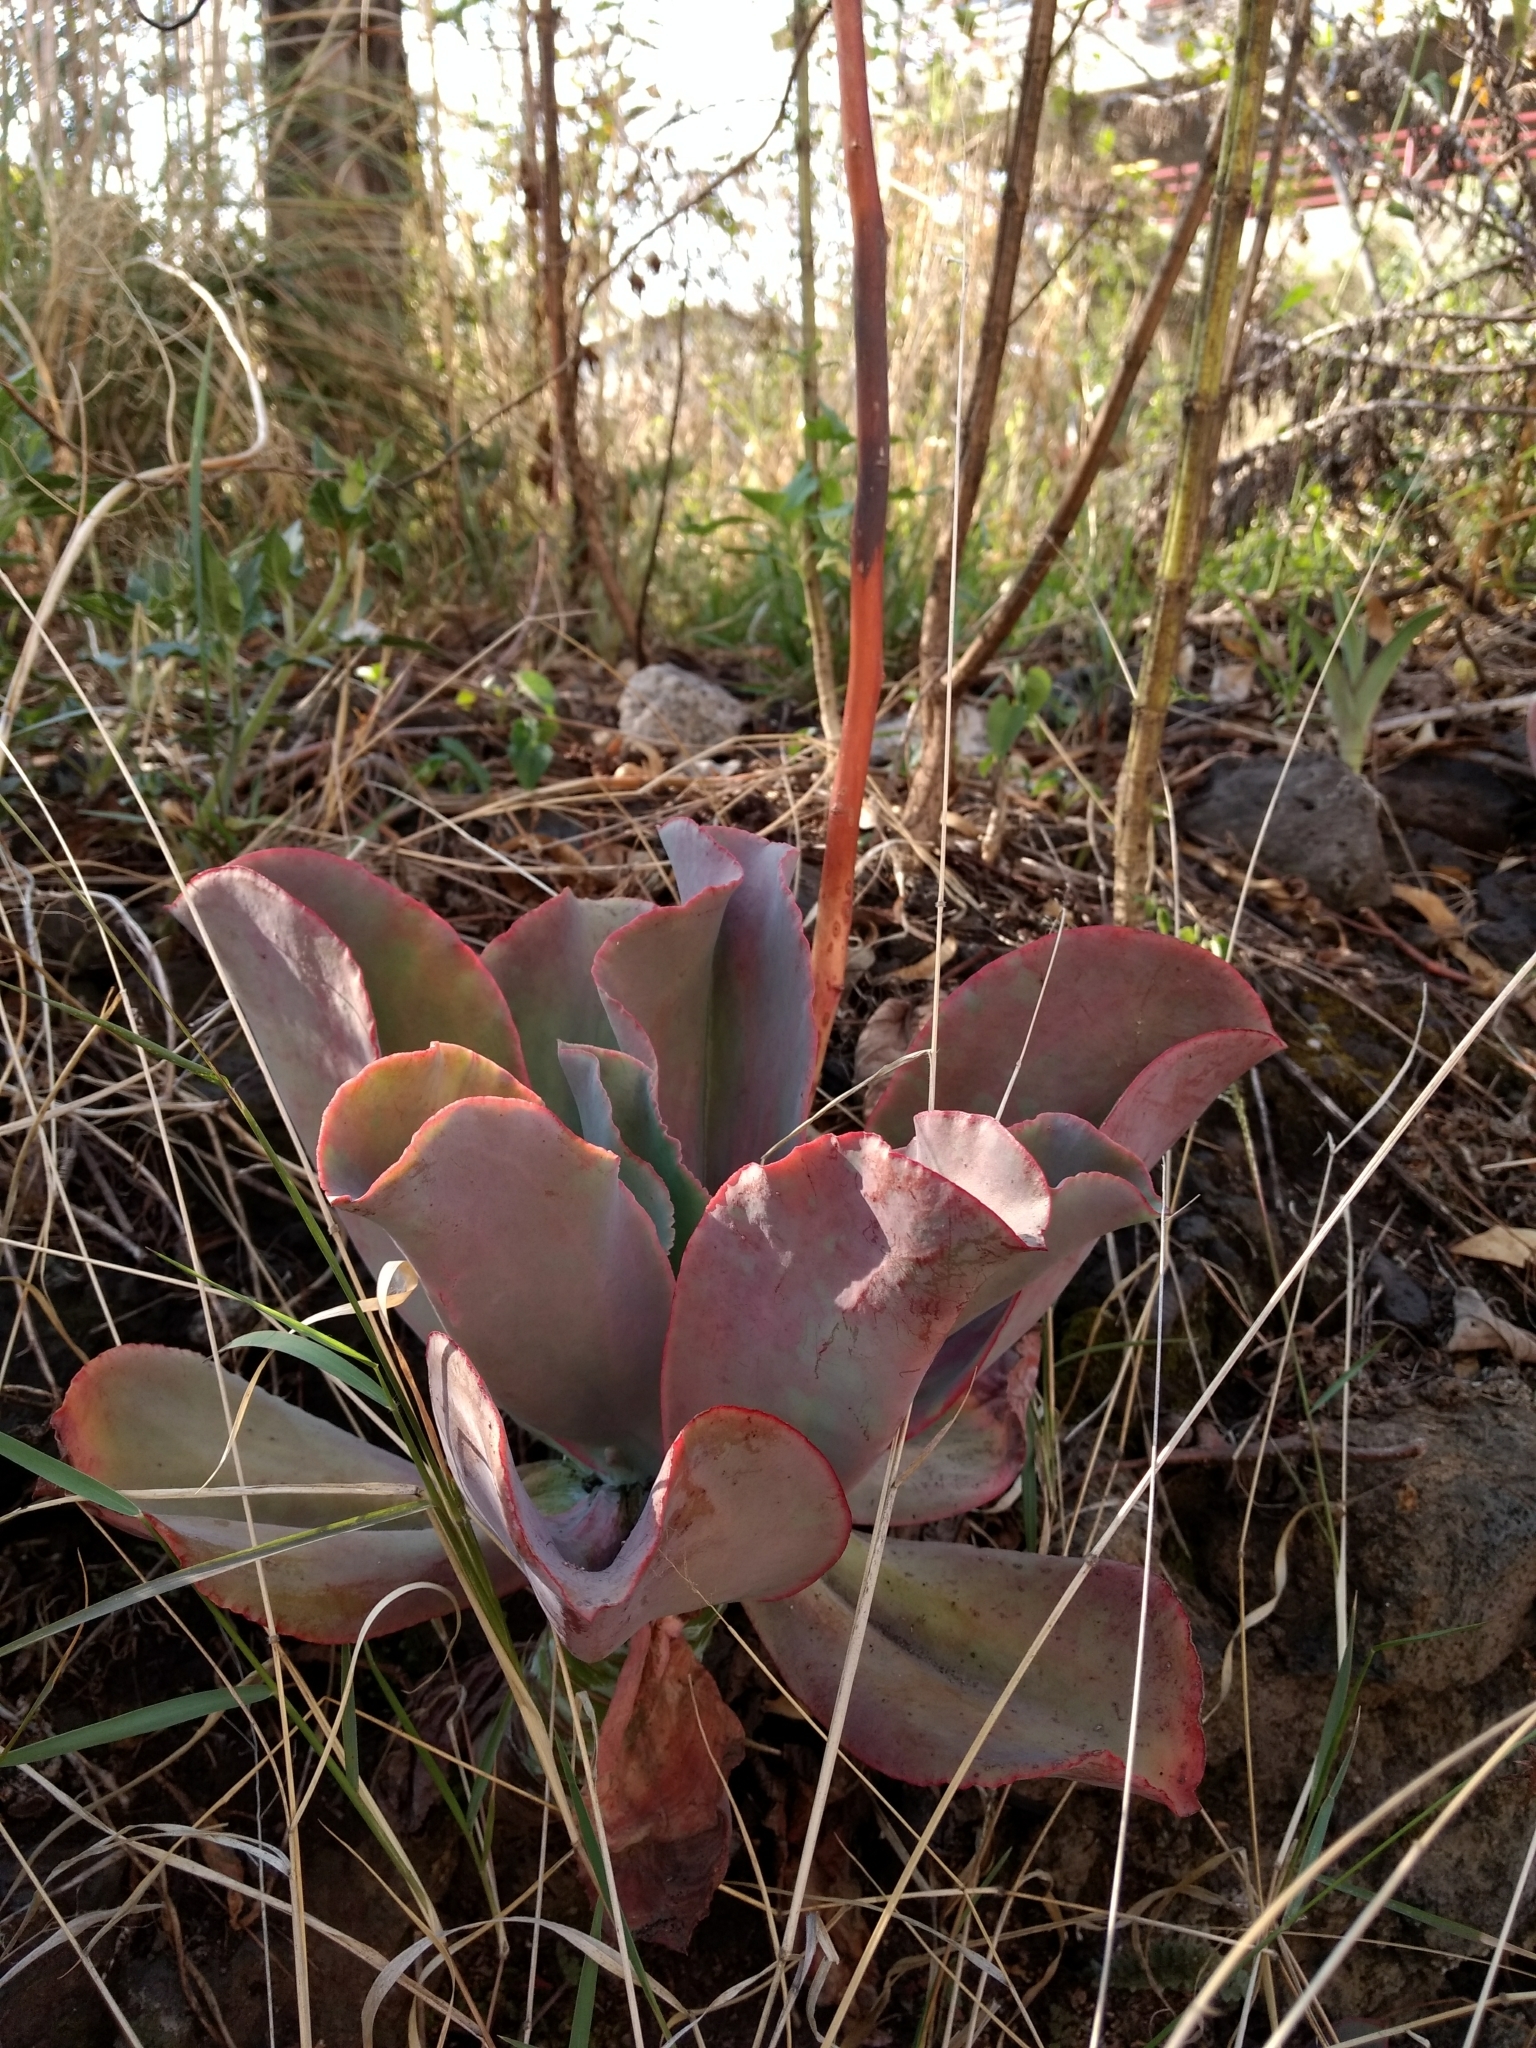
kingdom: Plantae
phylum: Tracheophyta
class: Magnoliopsida
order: Saxifragales
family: Crassulaceae
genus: Echeveria
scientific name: Echeveria gibbiflora
